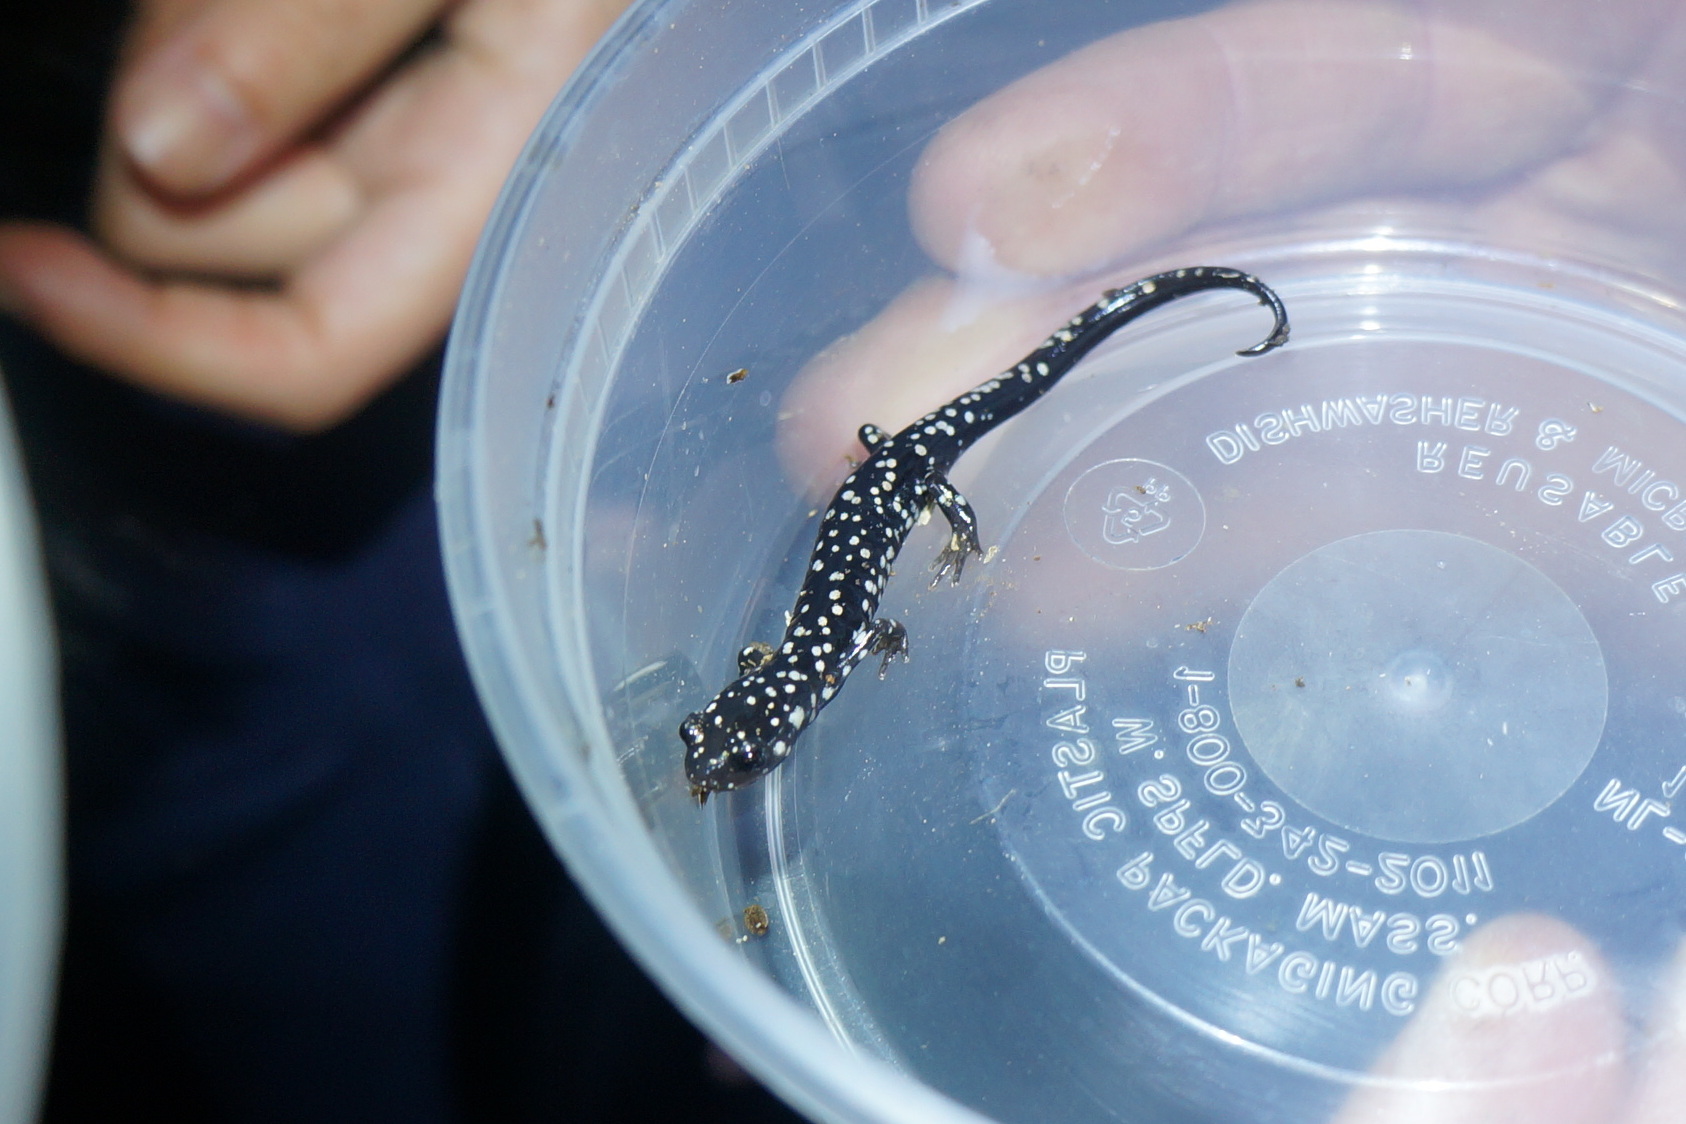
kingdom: Animalia
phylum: Chordata
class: Amphibia
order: Caudata
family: Plethodontidae
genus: Plethodon
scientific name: Plethodon glutinosus
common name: Northern slimy salamander
